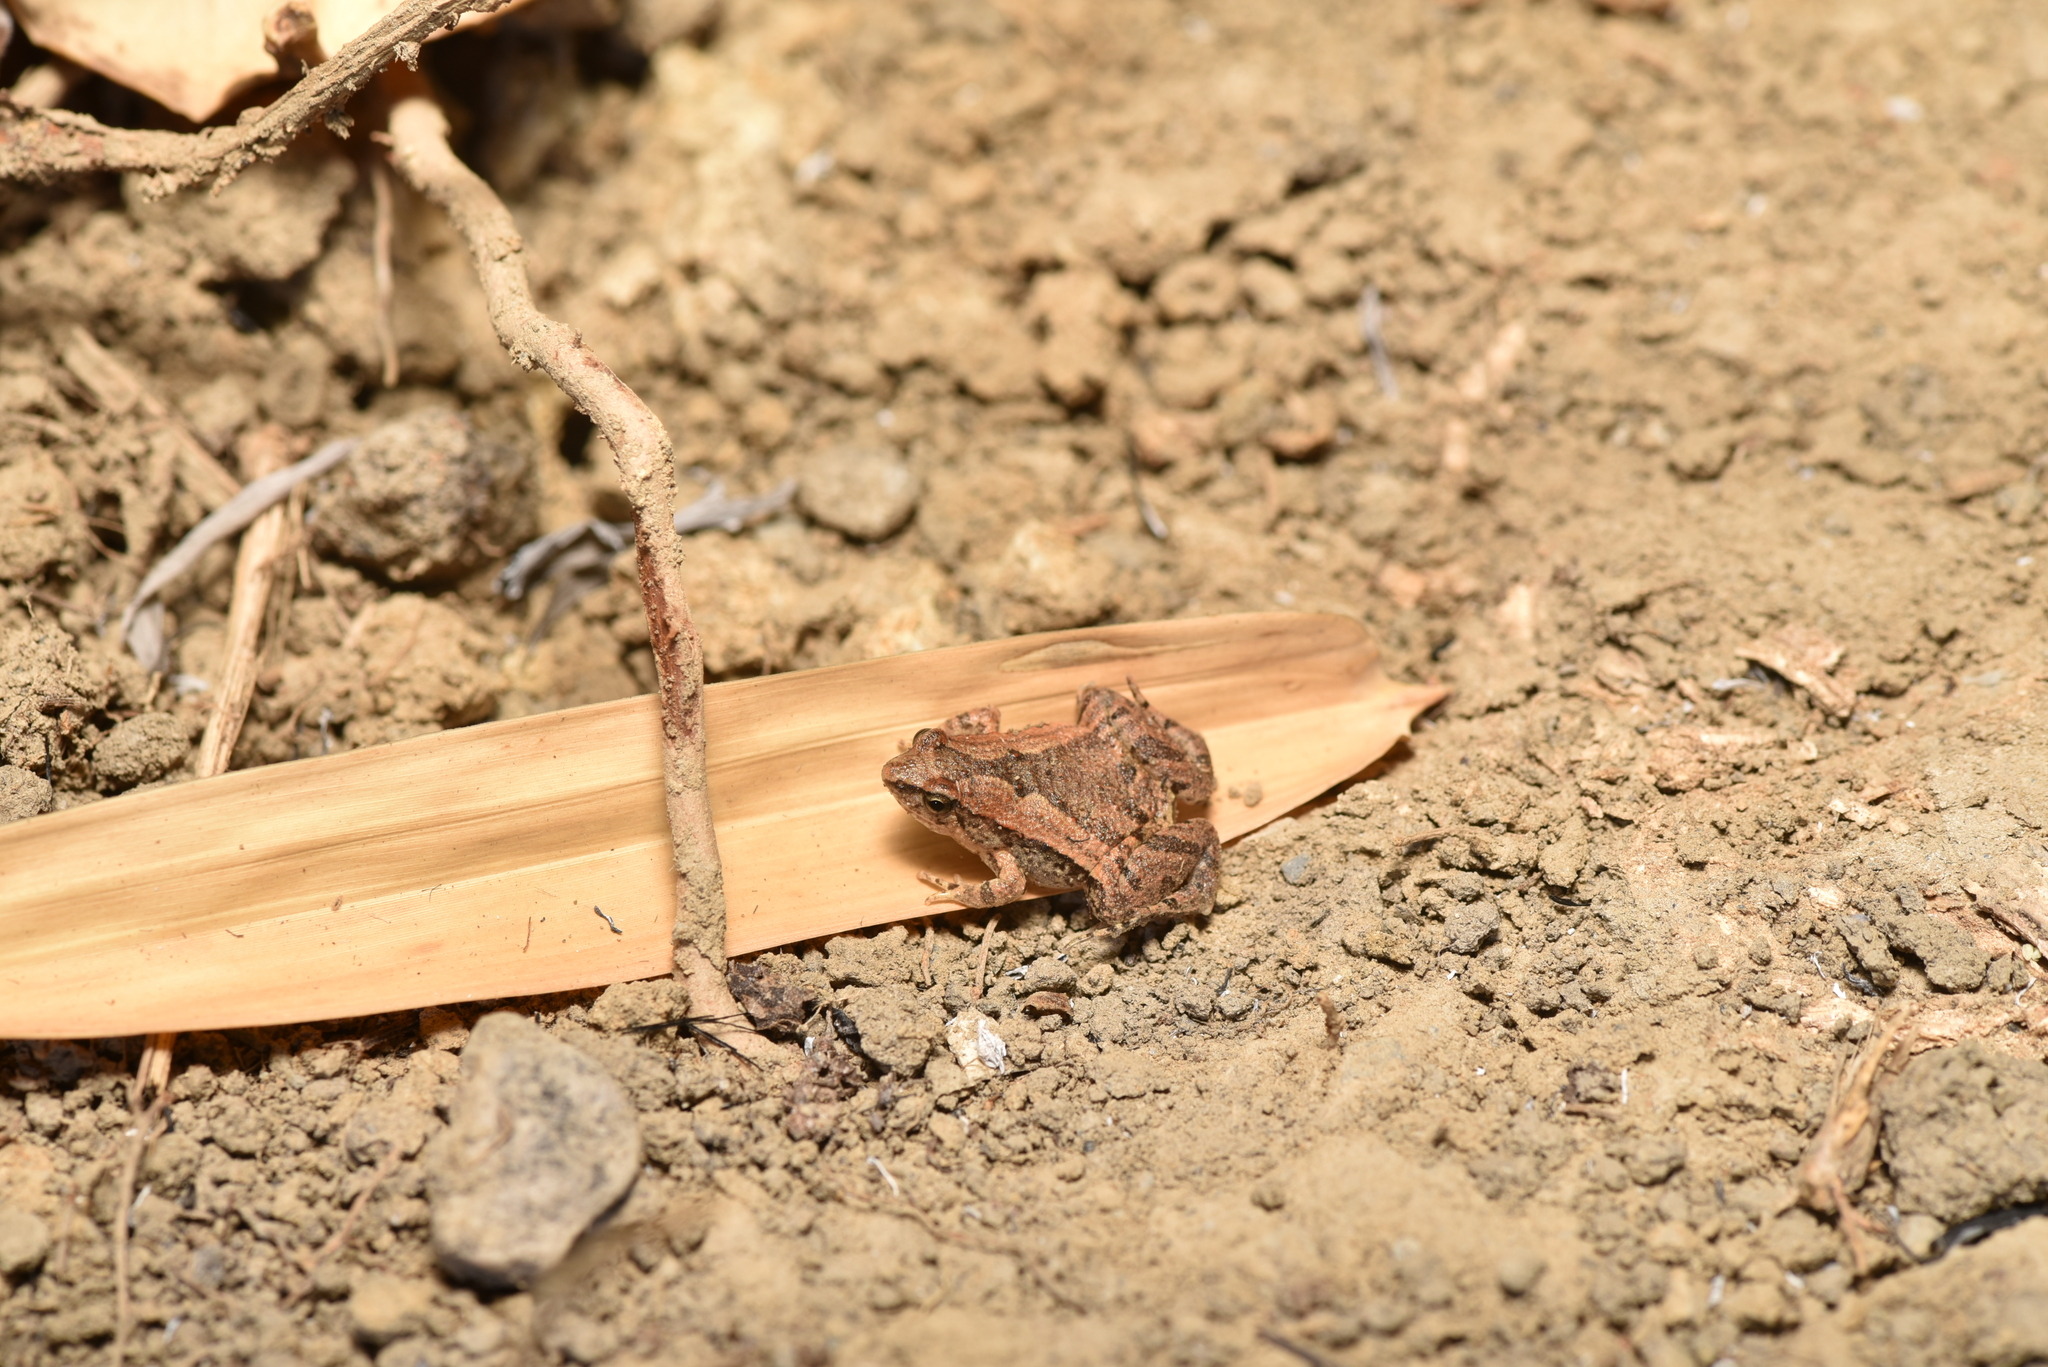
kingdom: Animalia
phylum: Chordata
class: Amphibia
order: Anura
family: Microhylidae
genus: Microhyla
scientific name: Microhyla fissipes
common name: Ornate narrow-mouthed frog
